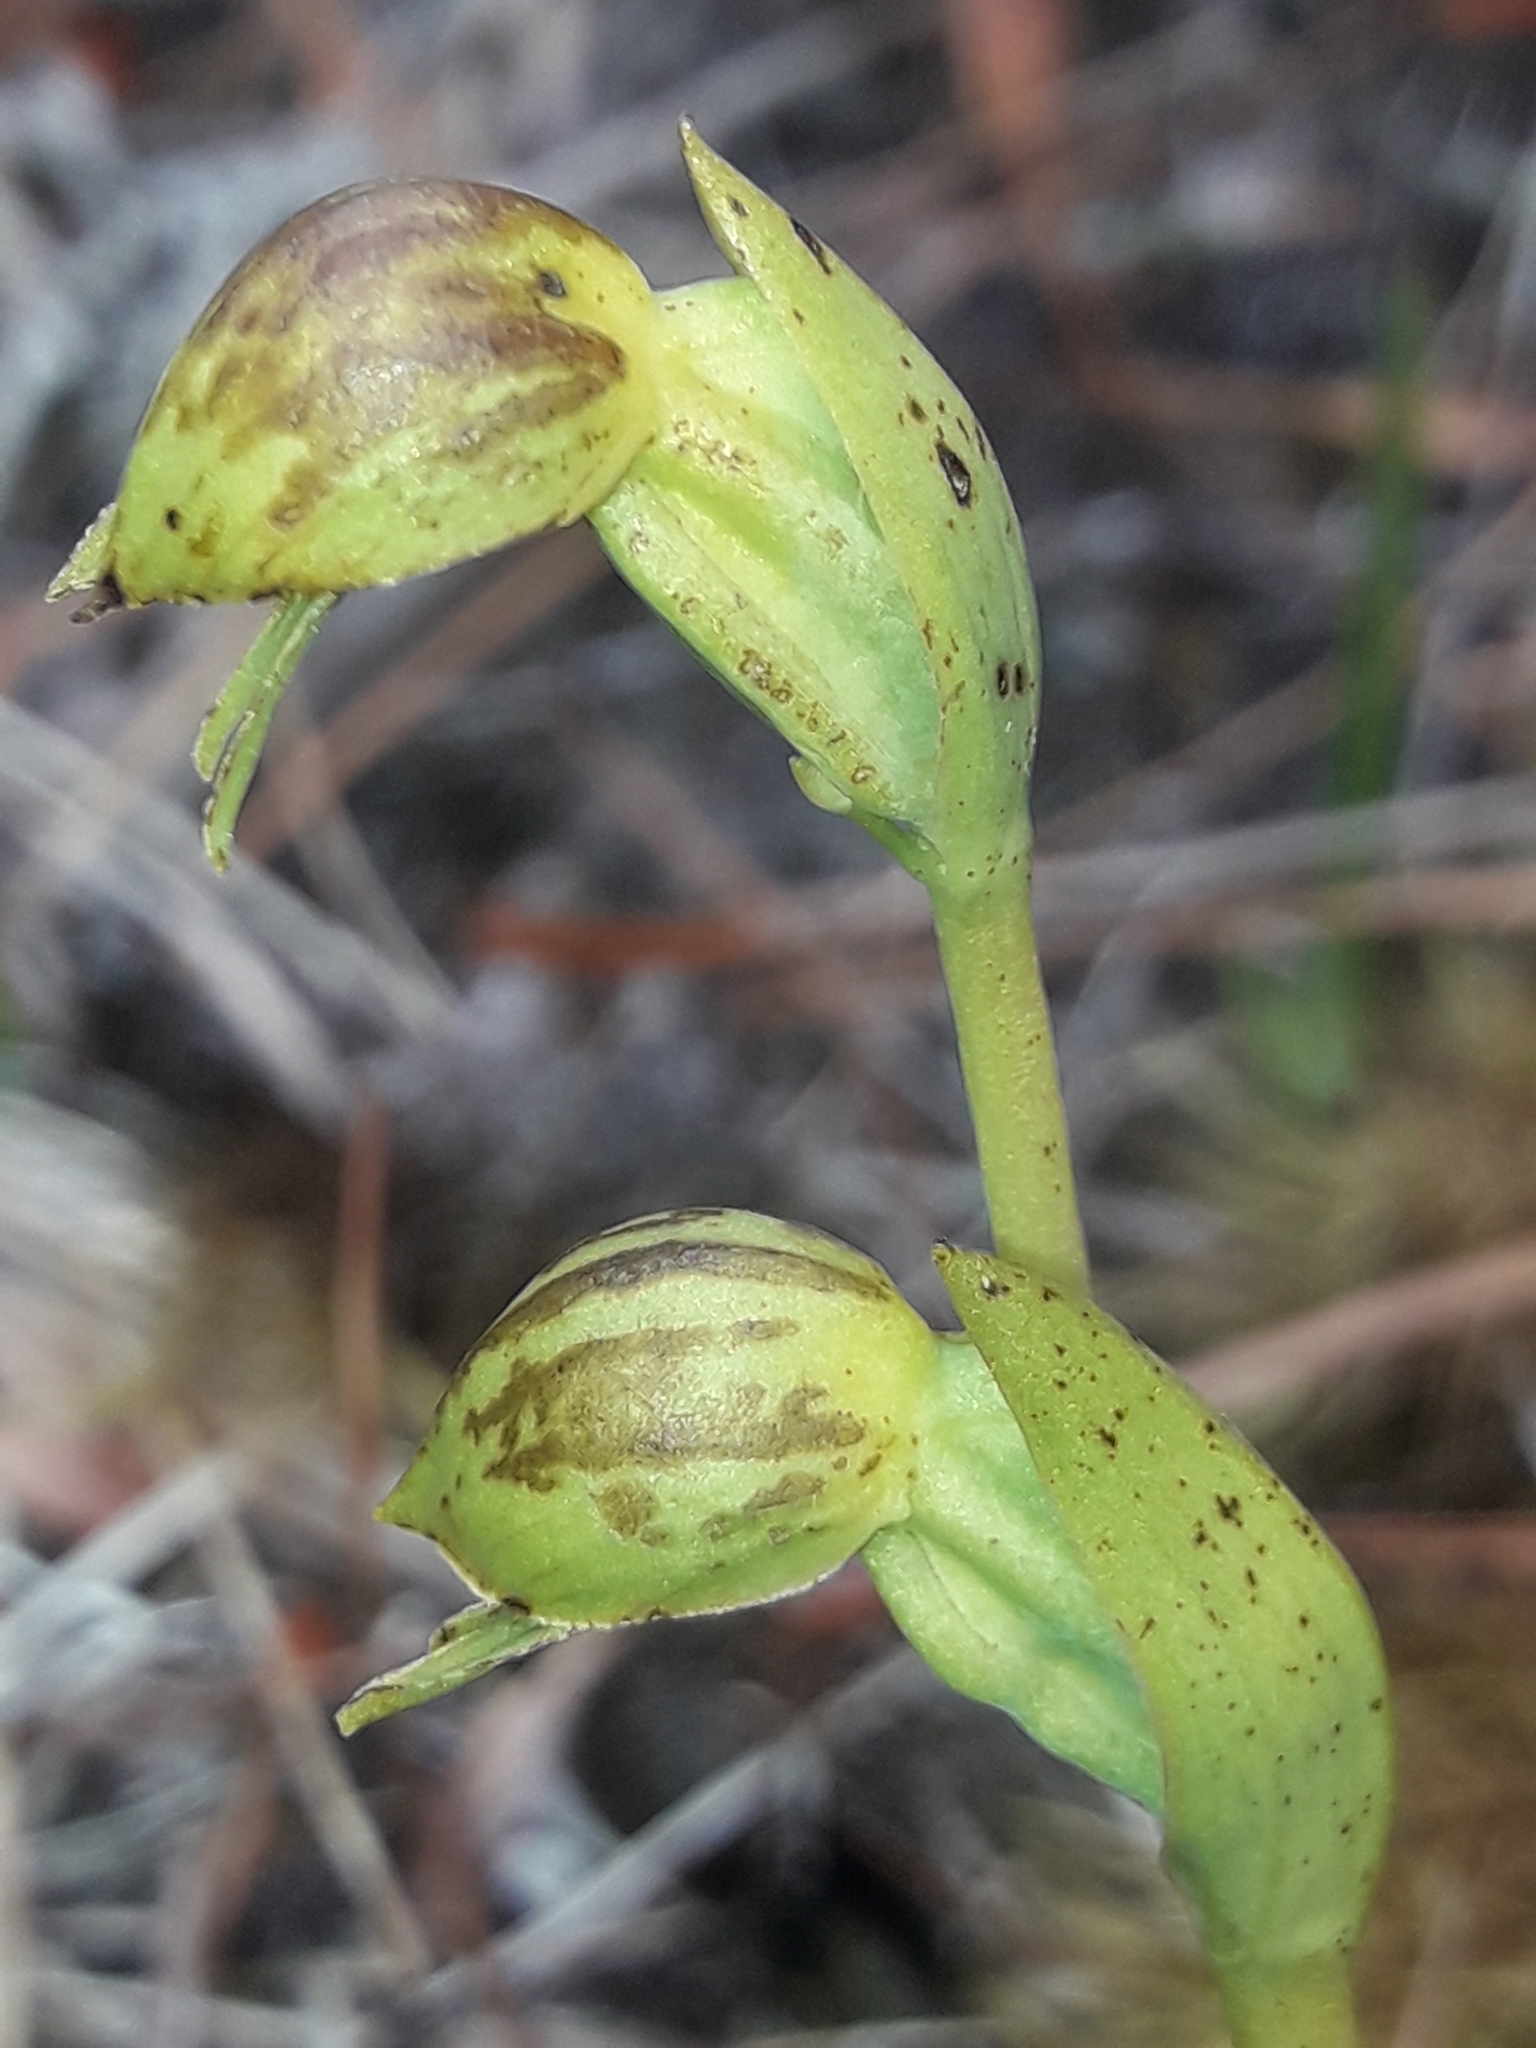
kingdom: Plantae
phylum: Tracheophyta
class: Liliopsida
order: Asparagales
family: Orchidaceae
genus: Waireia
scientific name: Waireia stenopetala
